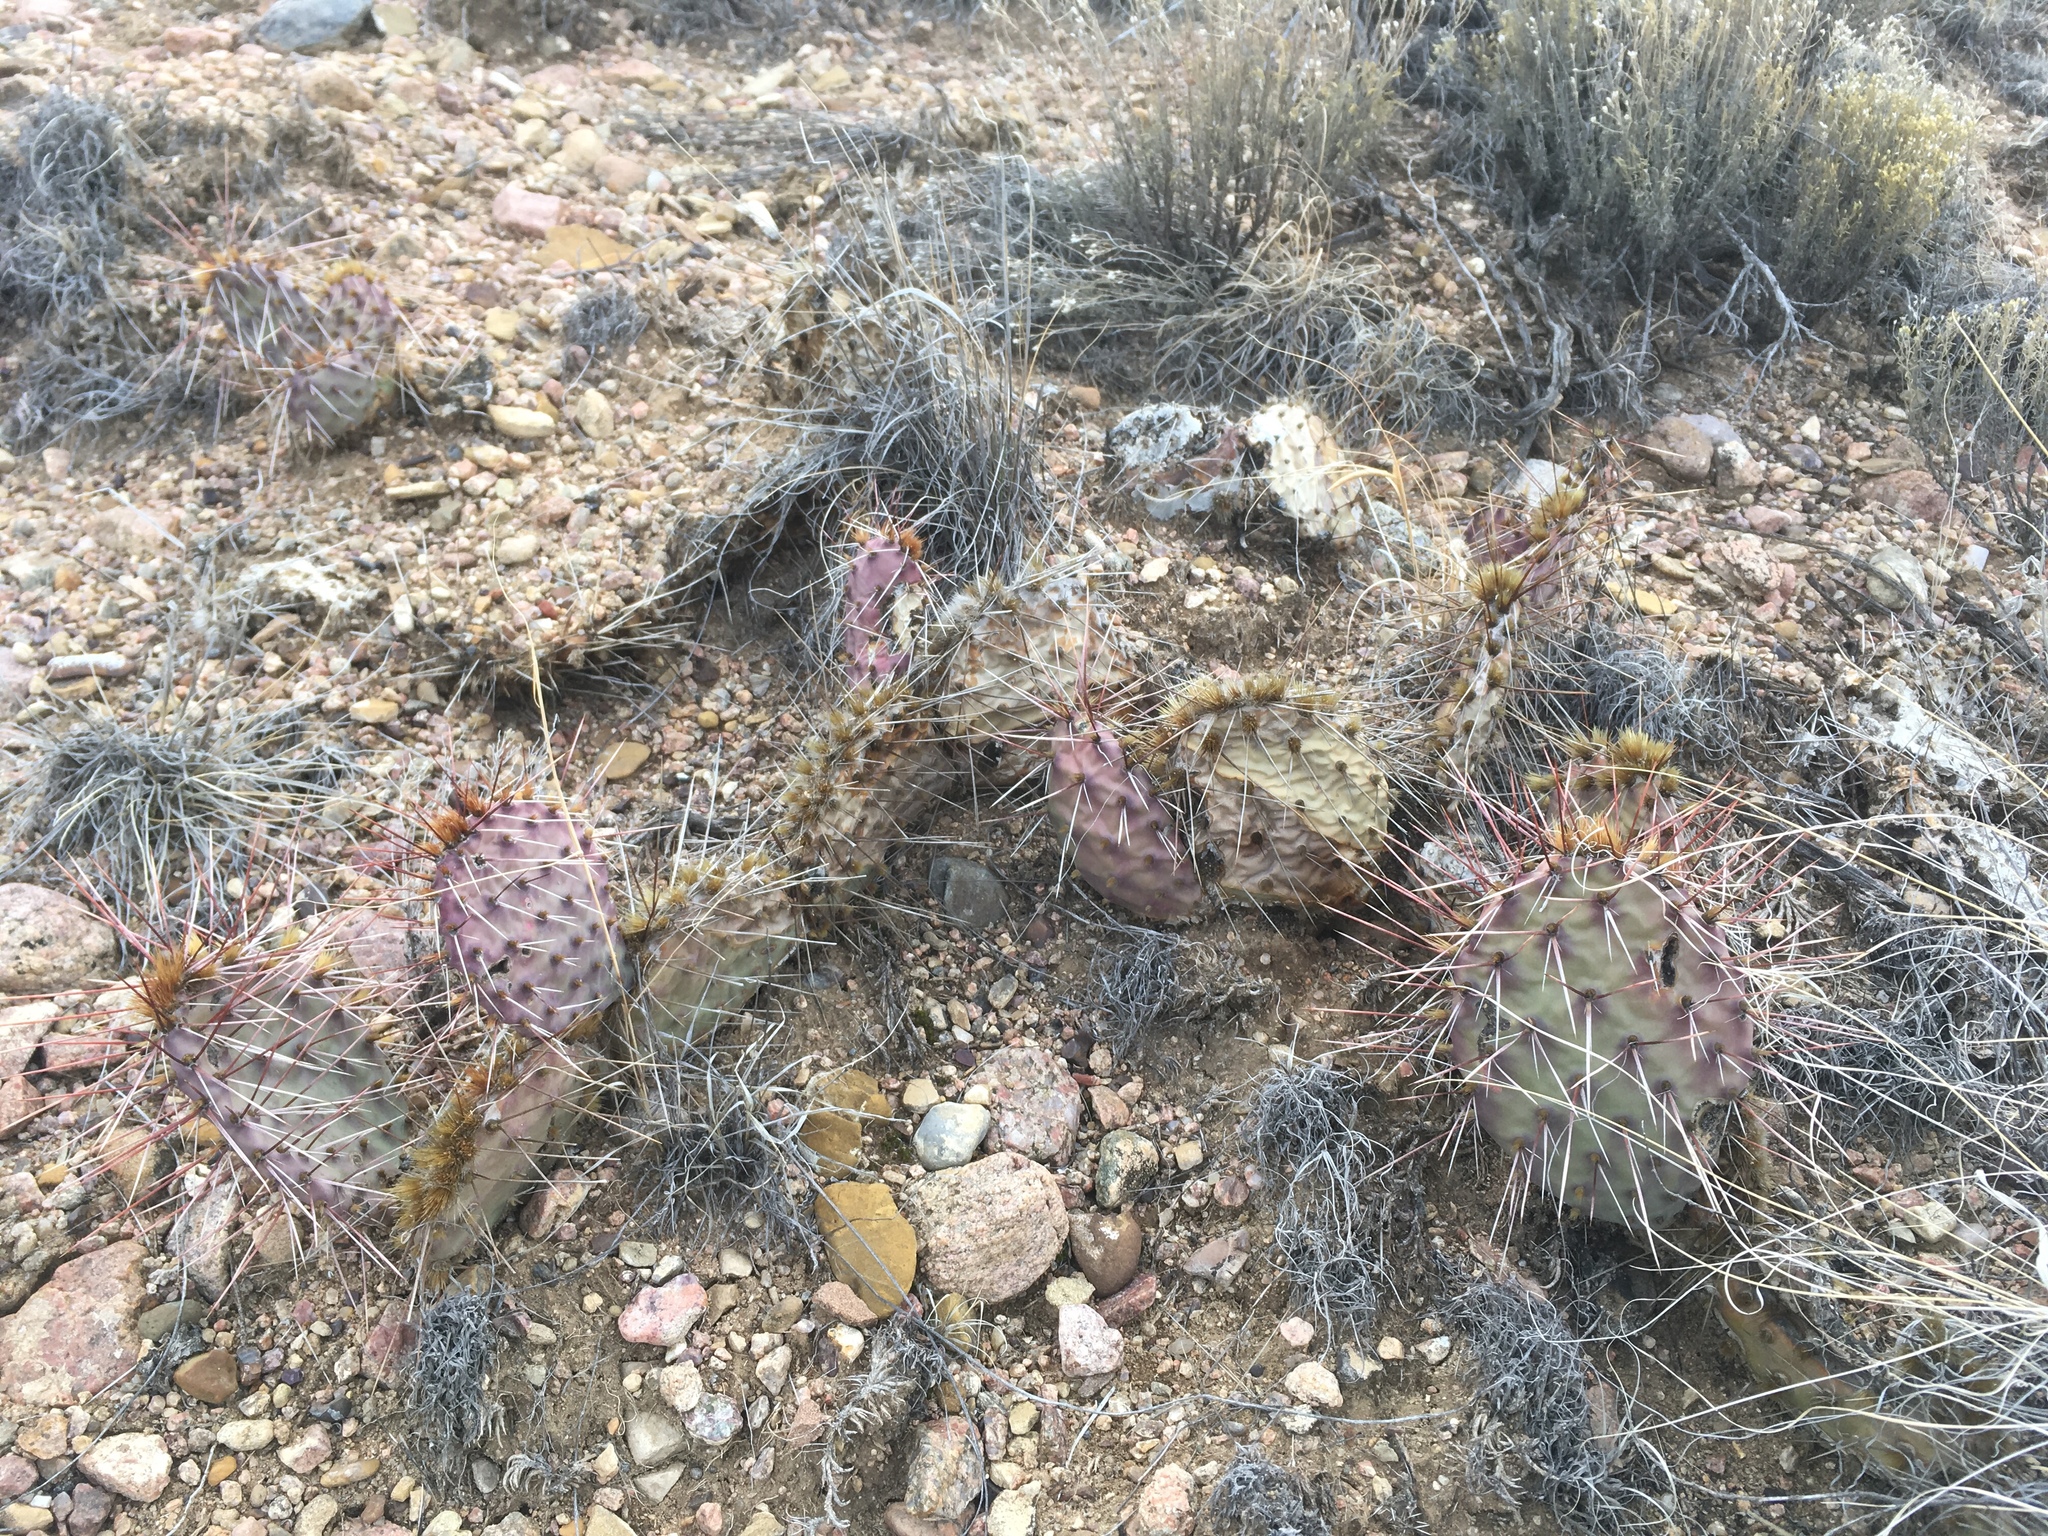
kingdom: Plantae
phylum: Tracheophyta
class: Magnoliopsida
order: Caryophyllales
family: Cactaceae
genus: Opuntia
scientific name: Opuntia macrorhiza
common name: Grassland pricklypear
